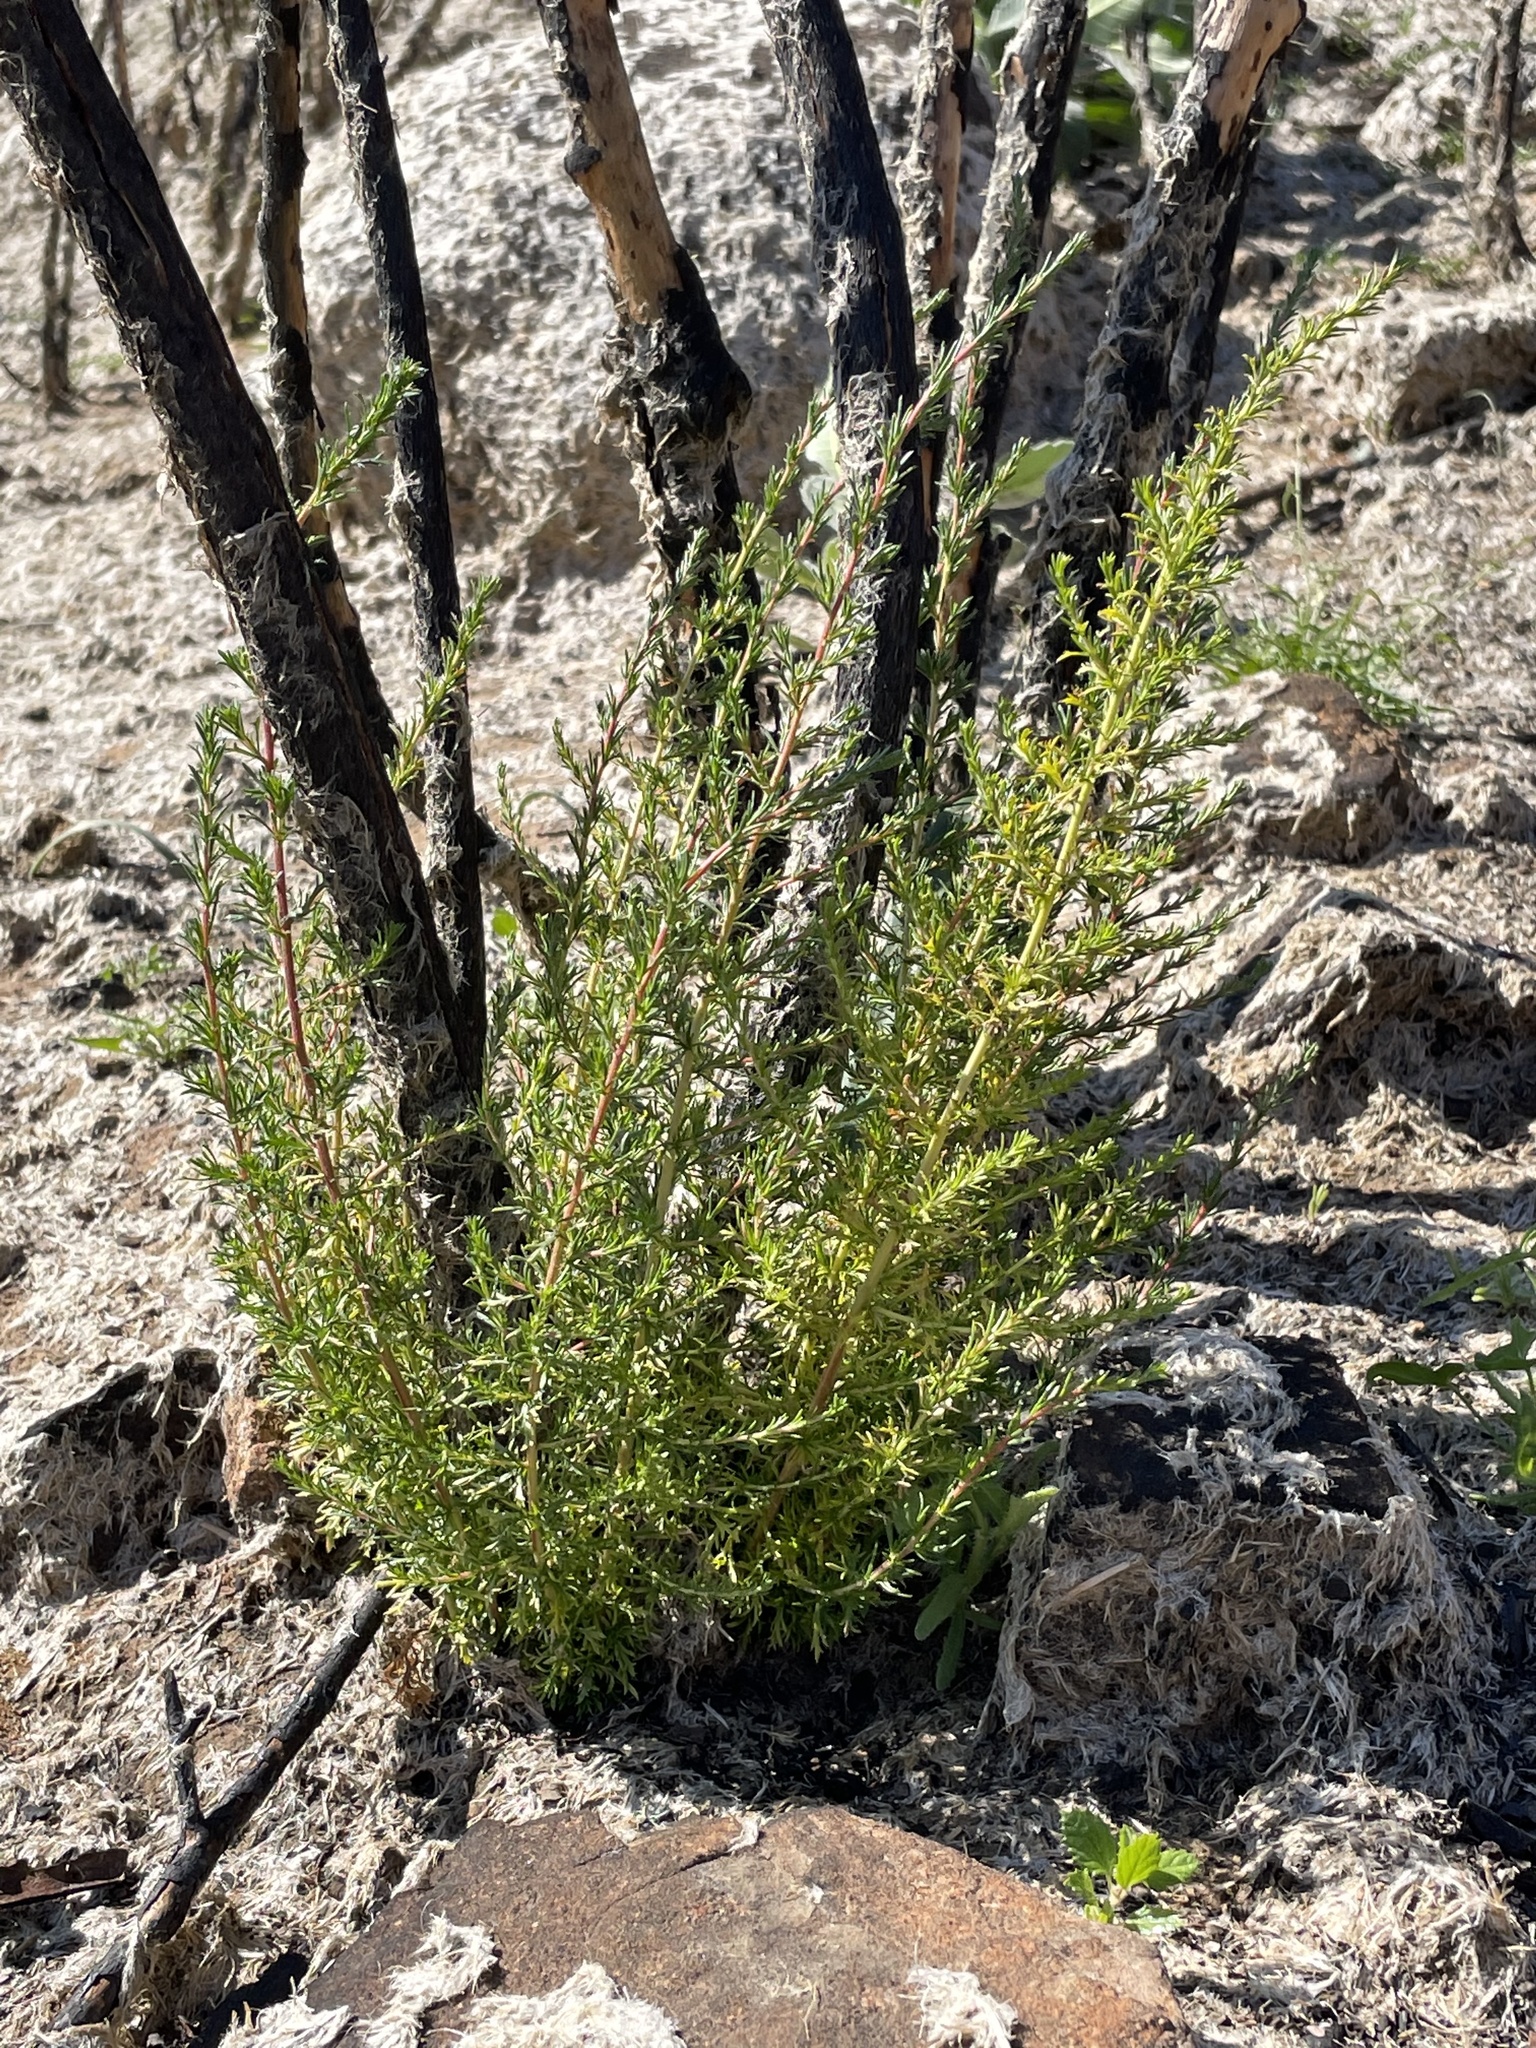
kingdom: Plantae
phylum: Tracheophyta
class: Magnoliopsida
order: Rosales
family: Rosaceae
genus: Adenostoma
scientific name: Adenostoma fasciculatum
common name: Chamise
